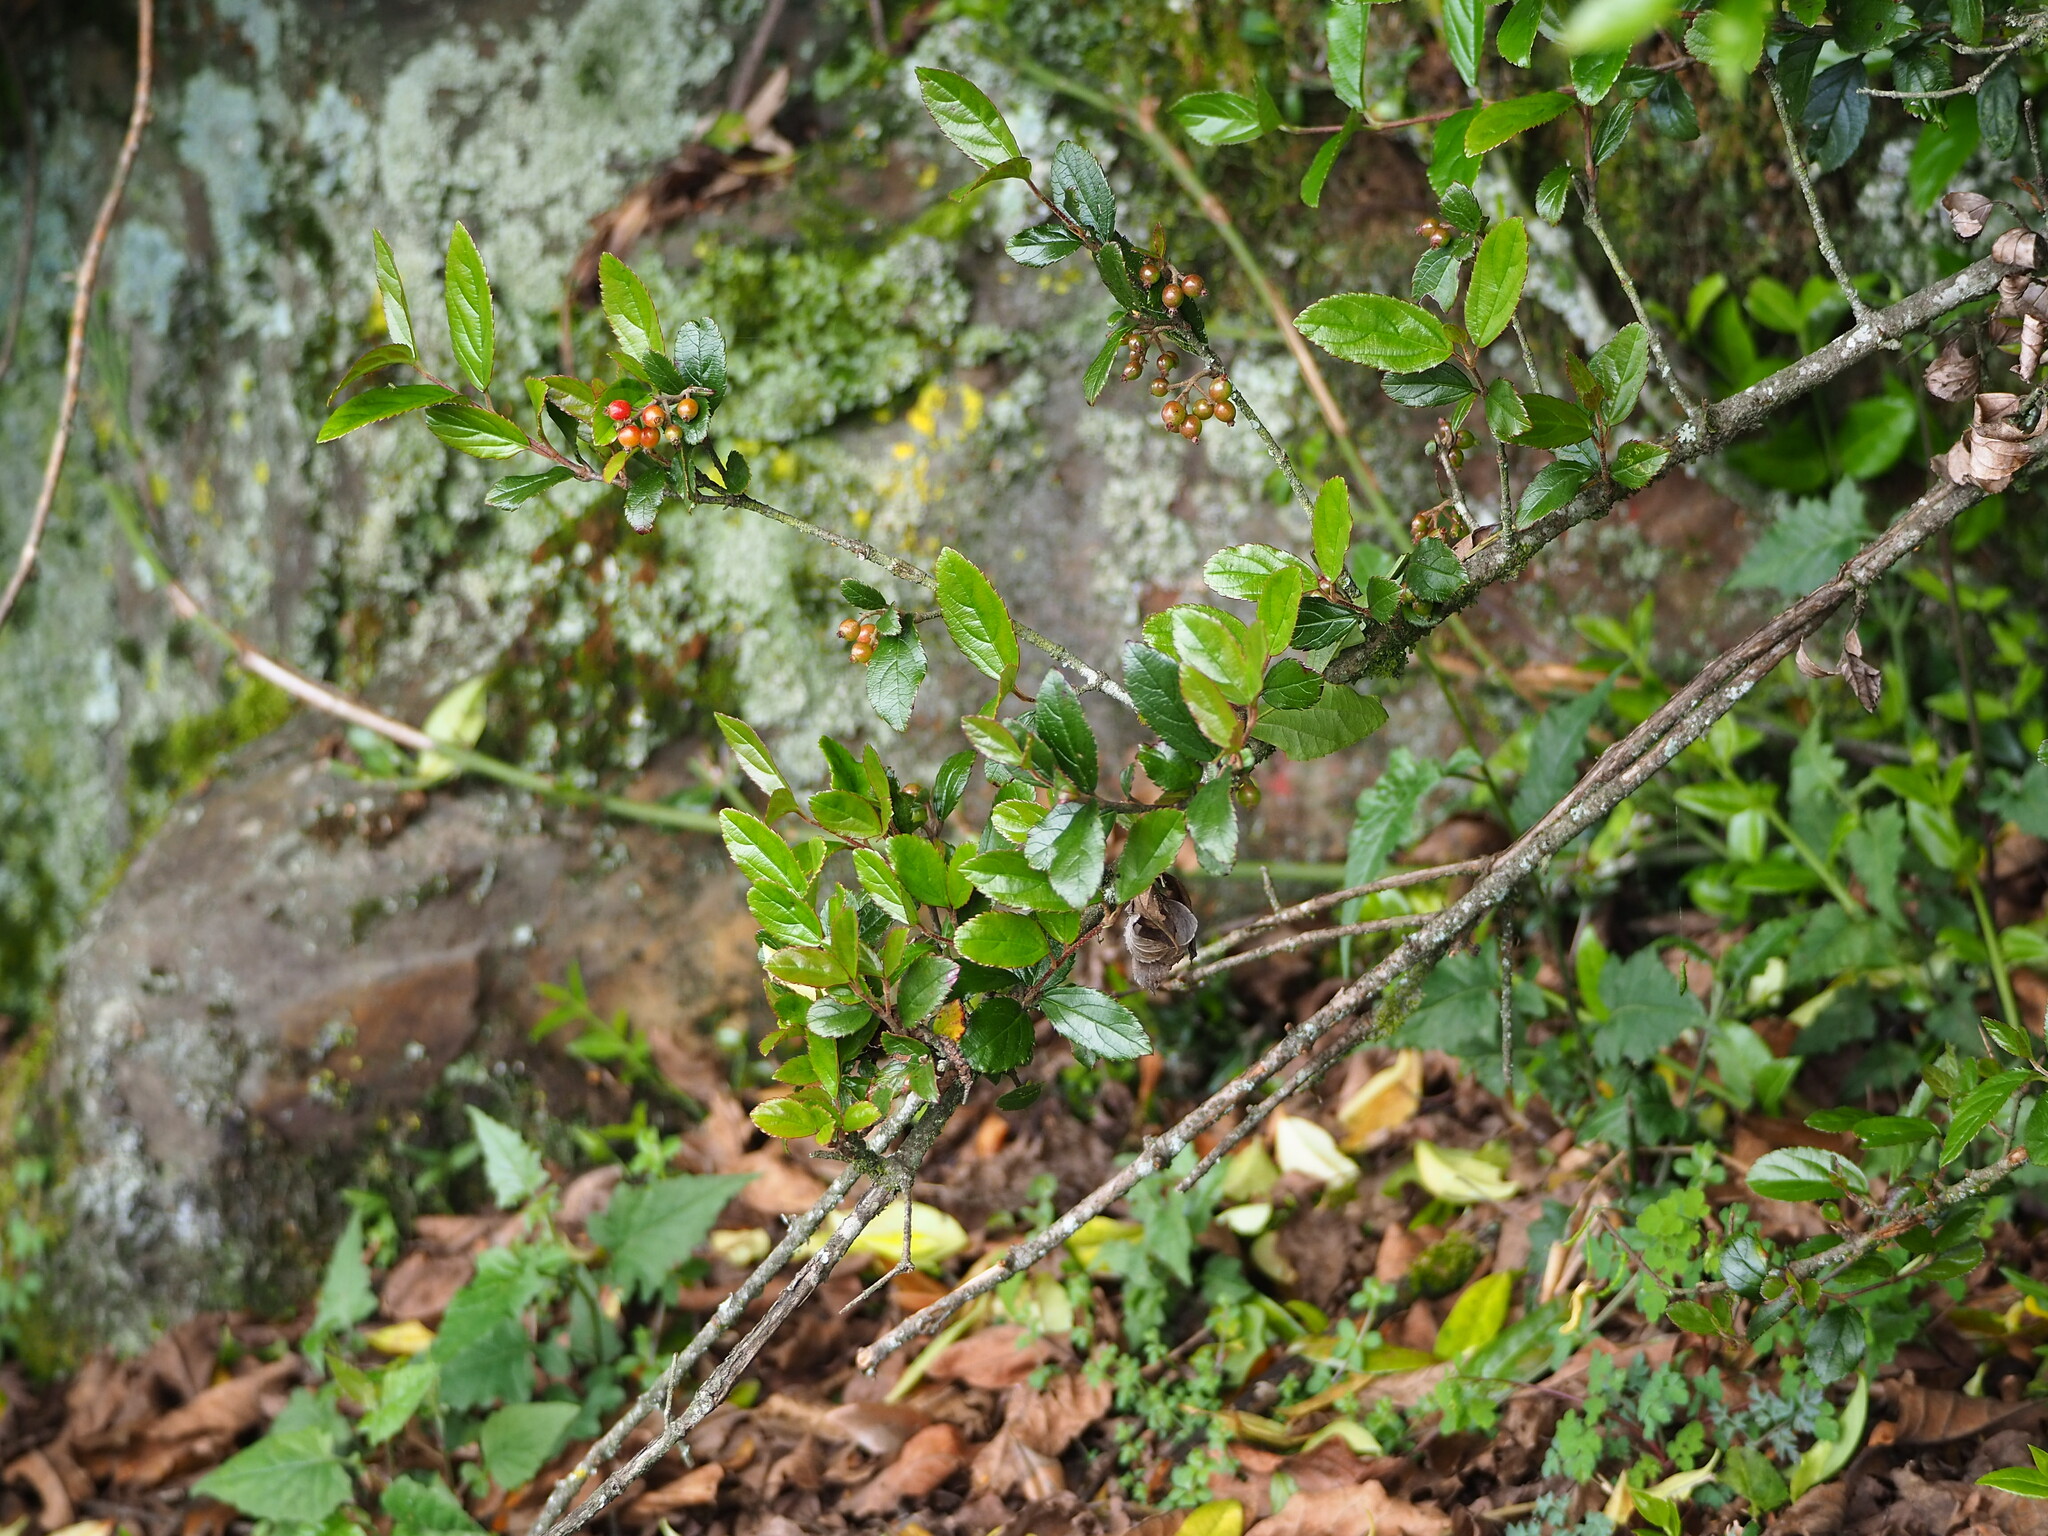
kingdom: Plantae
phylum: Tracheophyta
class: Magnoliopsida
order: Dipsacales
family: Viburnaceae
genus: Viburnum
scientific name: Viburnum taitoense
